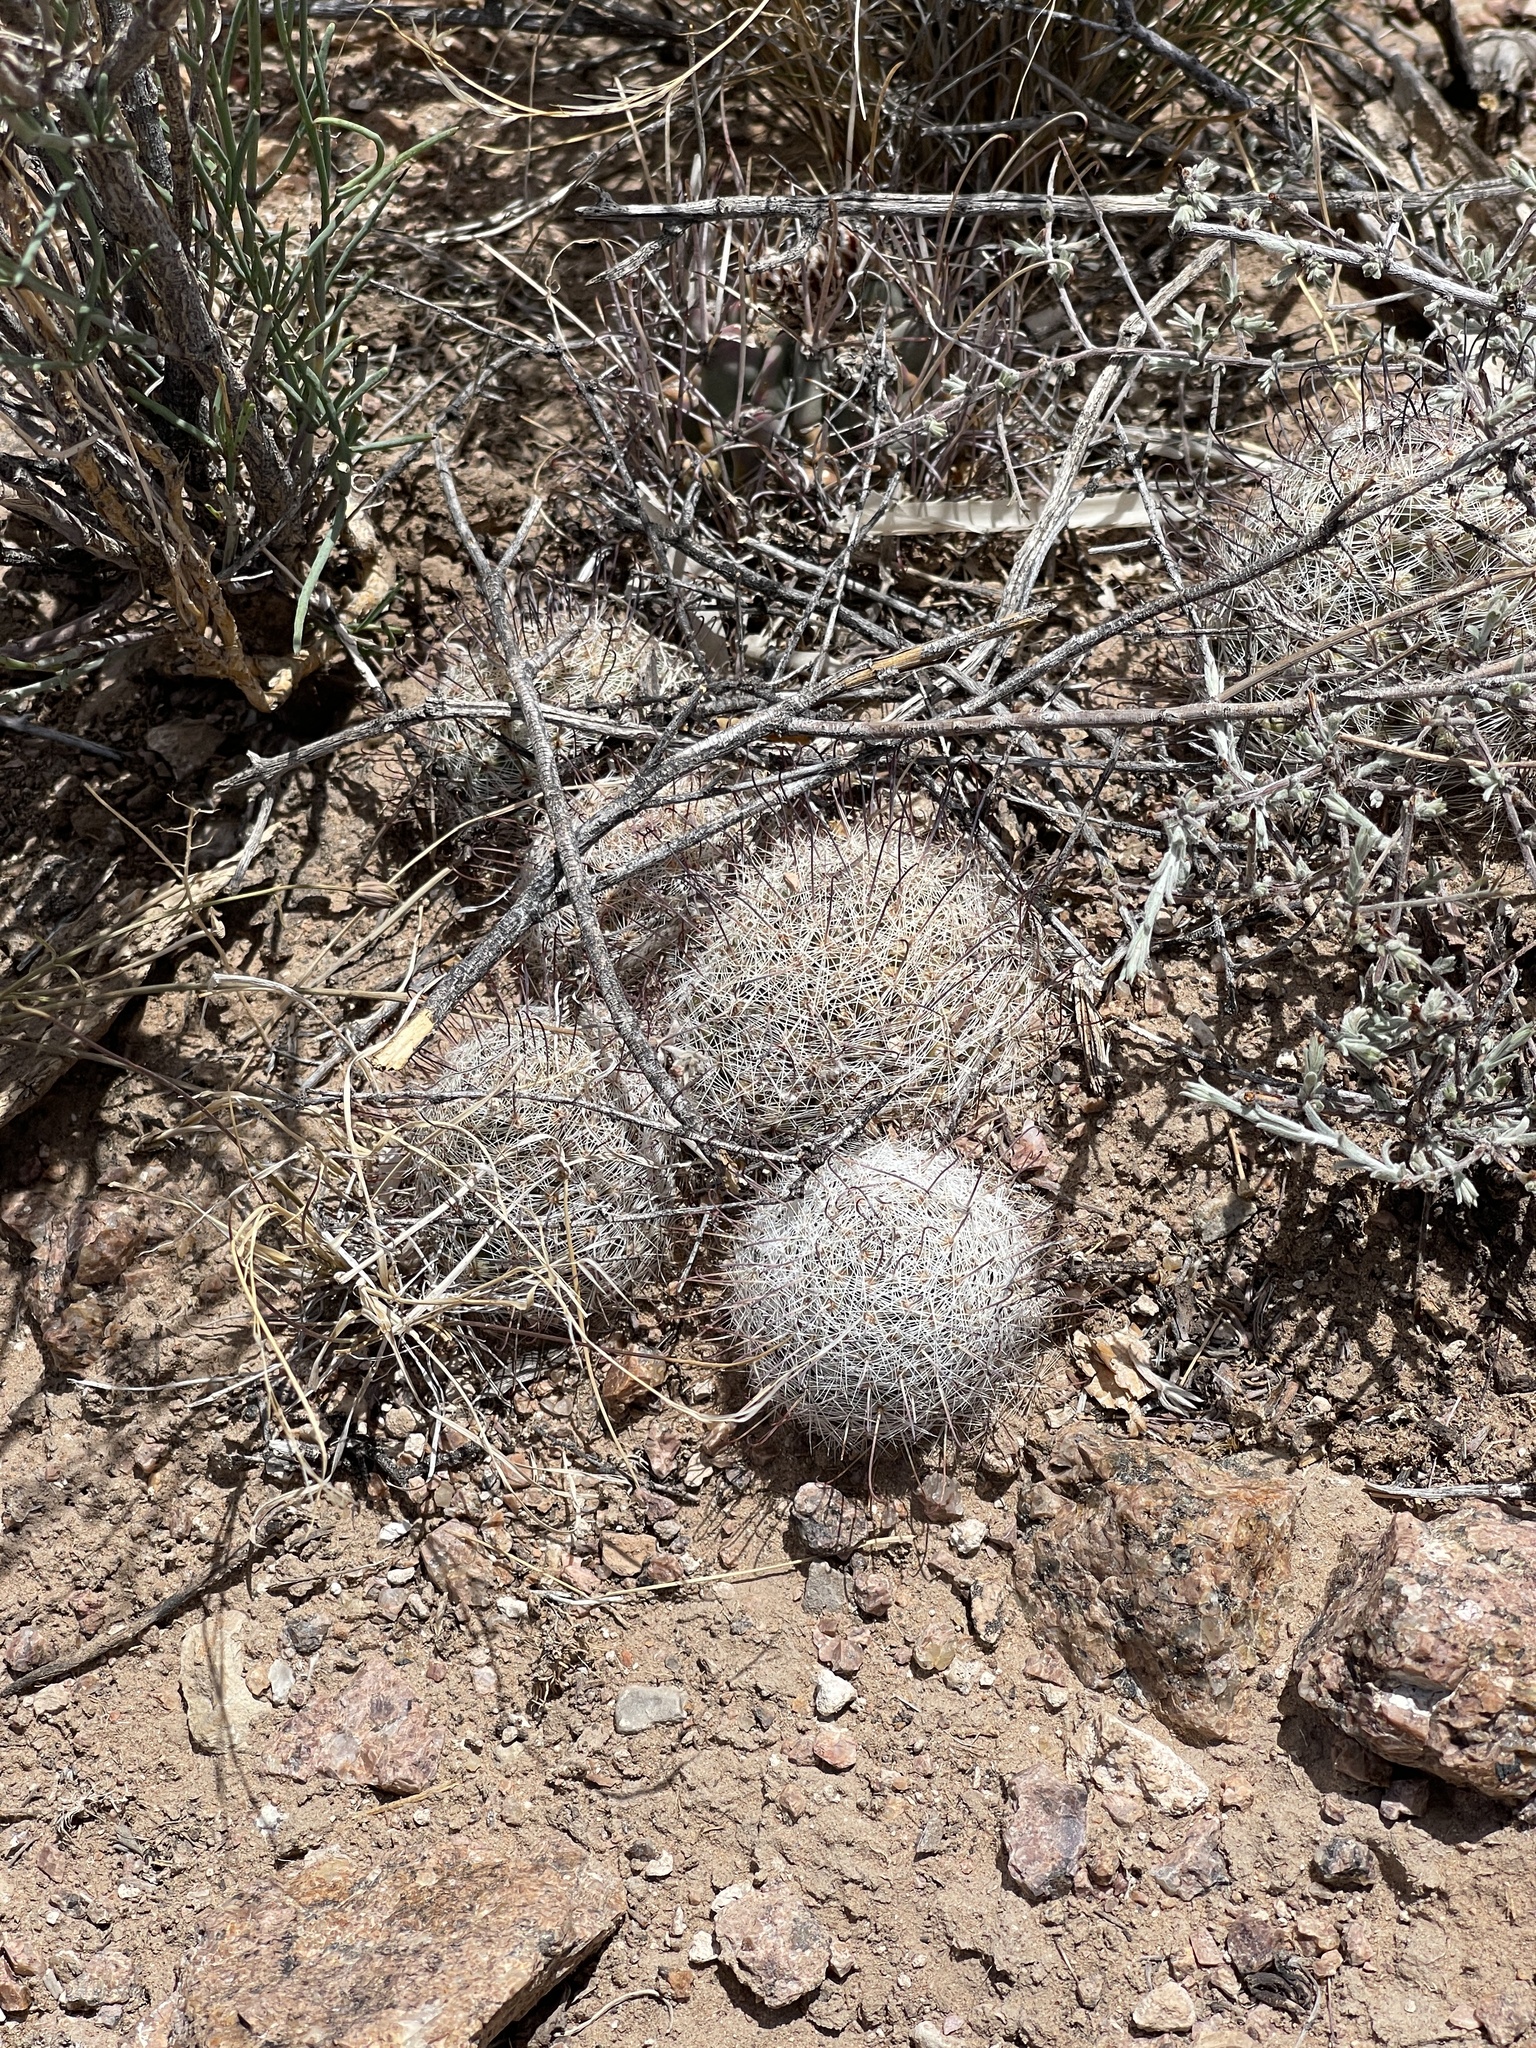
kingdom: Plantae
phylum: Tracheophyta
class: Magnoliopsida
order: Caryophyllales
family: Cactaceae
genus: Cochemiea
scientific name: Cochemiea grahamii
